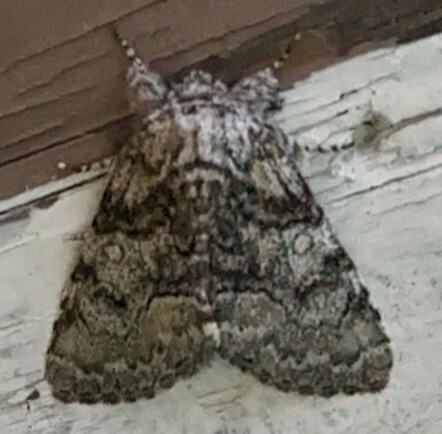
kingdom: Animalia
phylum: Arthropoda
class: Insecta
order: Lepidoptera
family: Noctuidae
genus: Raphia
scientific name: Raphia frater
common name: Brother
